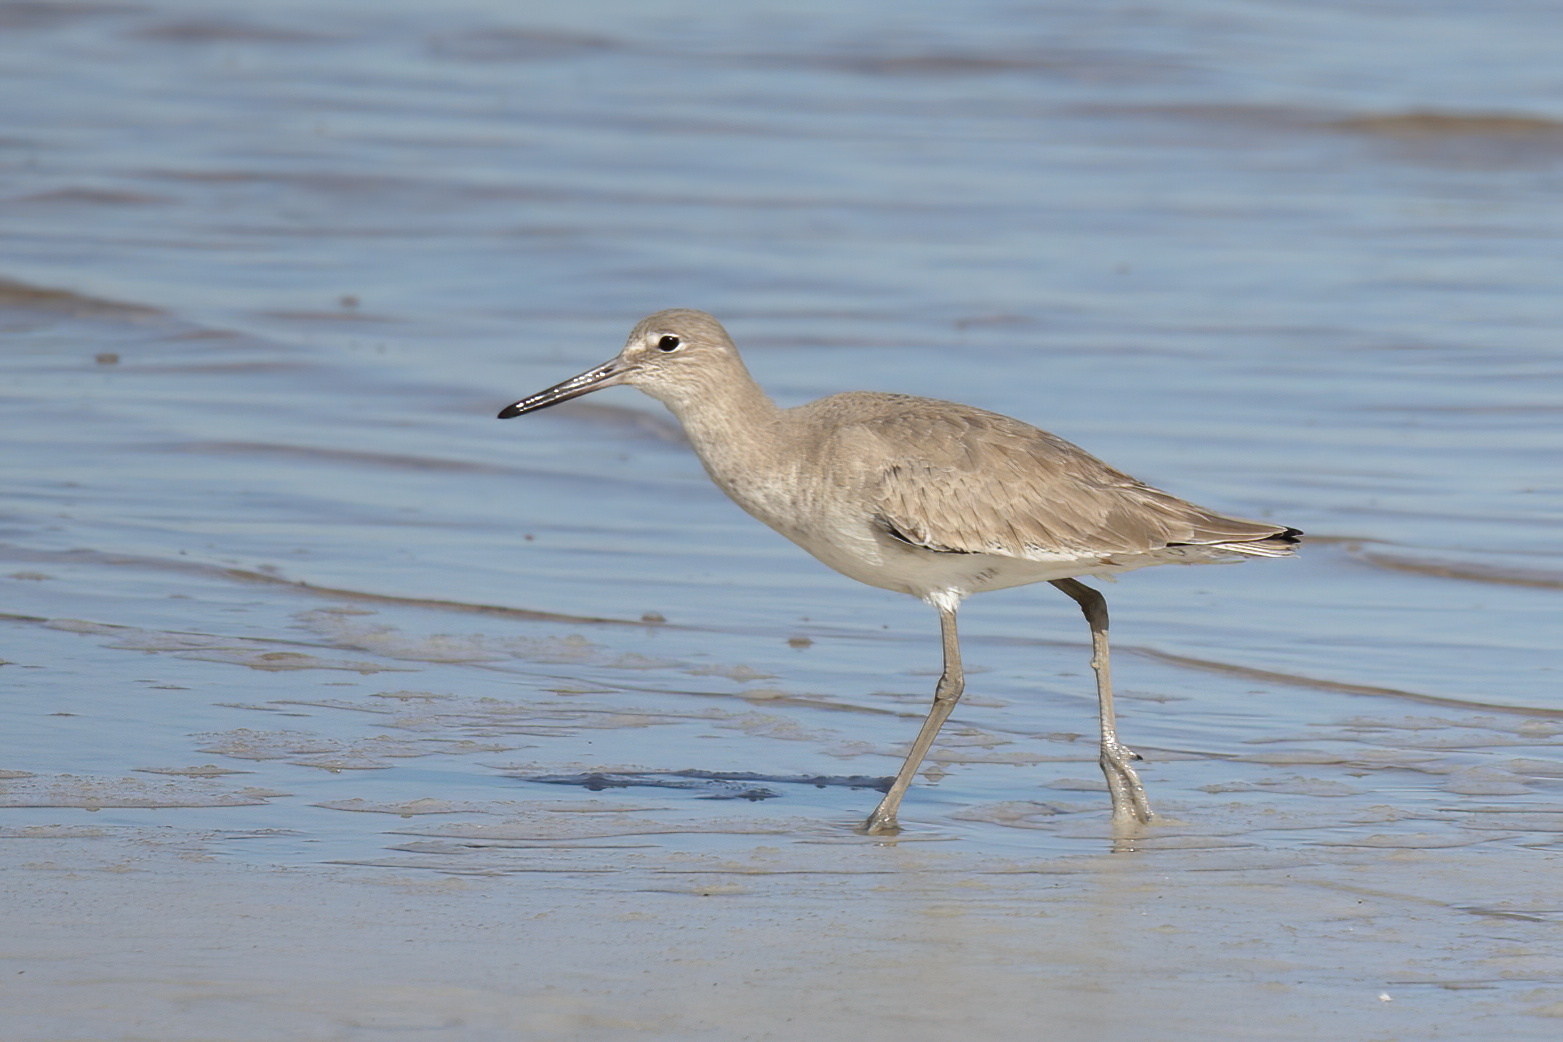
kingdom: Animalia
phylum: Chordata
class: Aves
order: Charadriiformes
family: Scolopacidae
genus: Tringa
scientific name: Tringa semipalmata
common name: Willet
